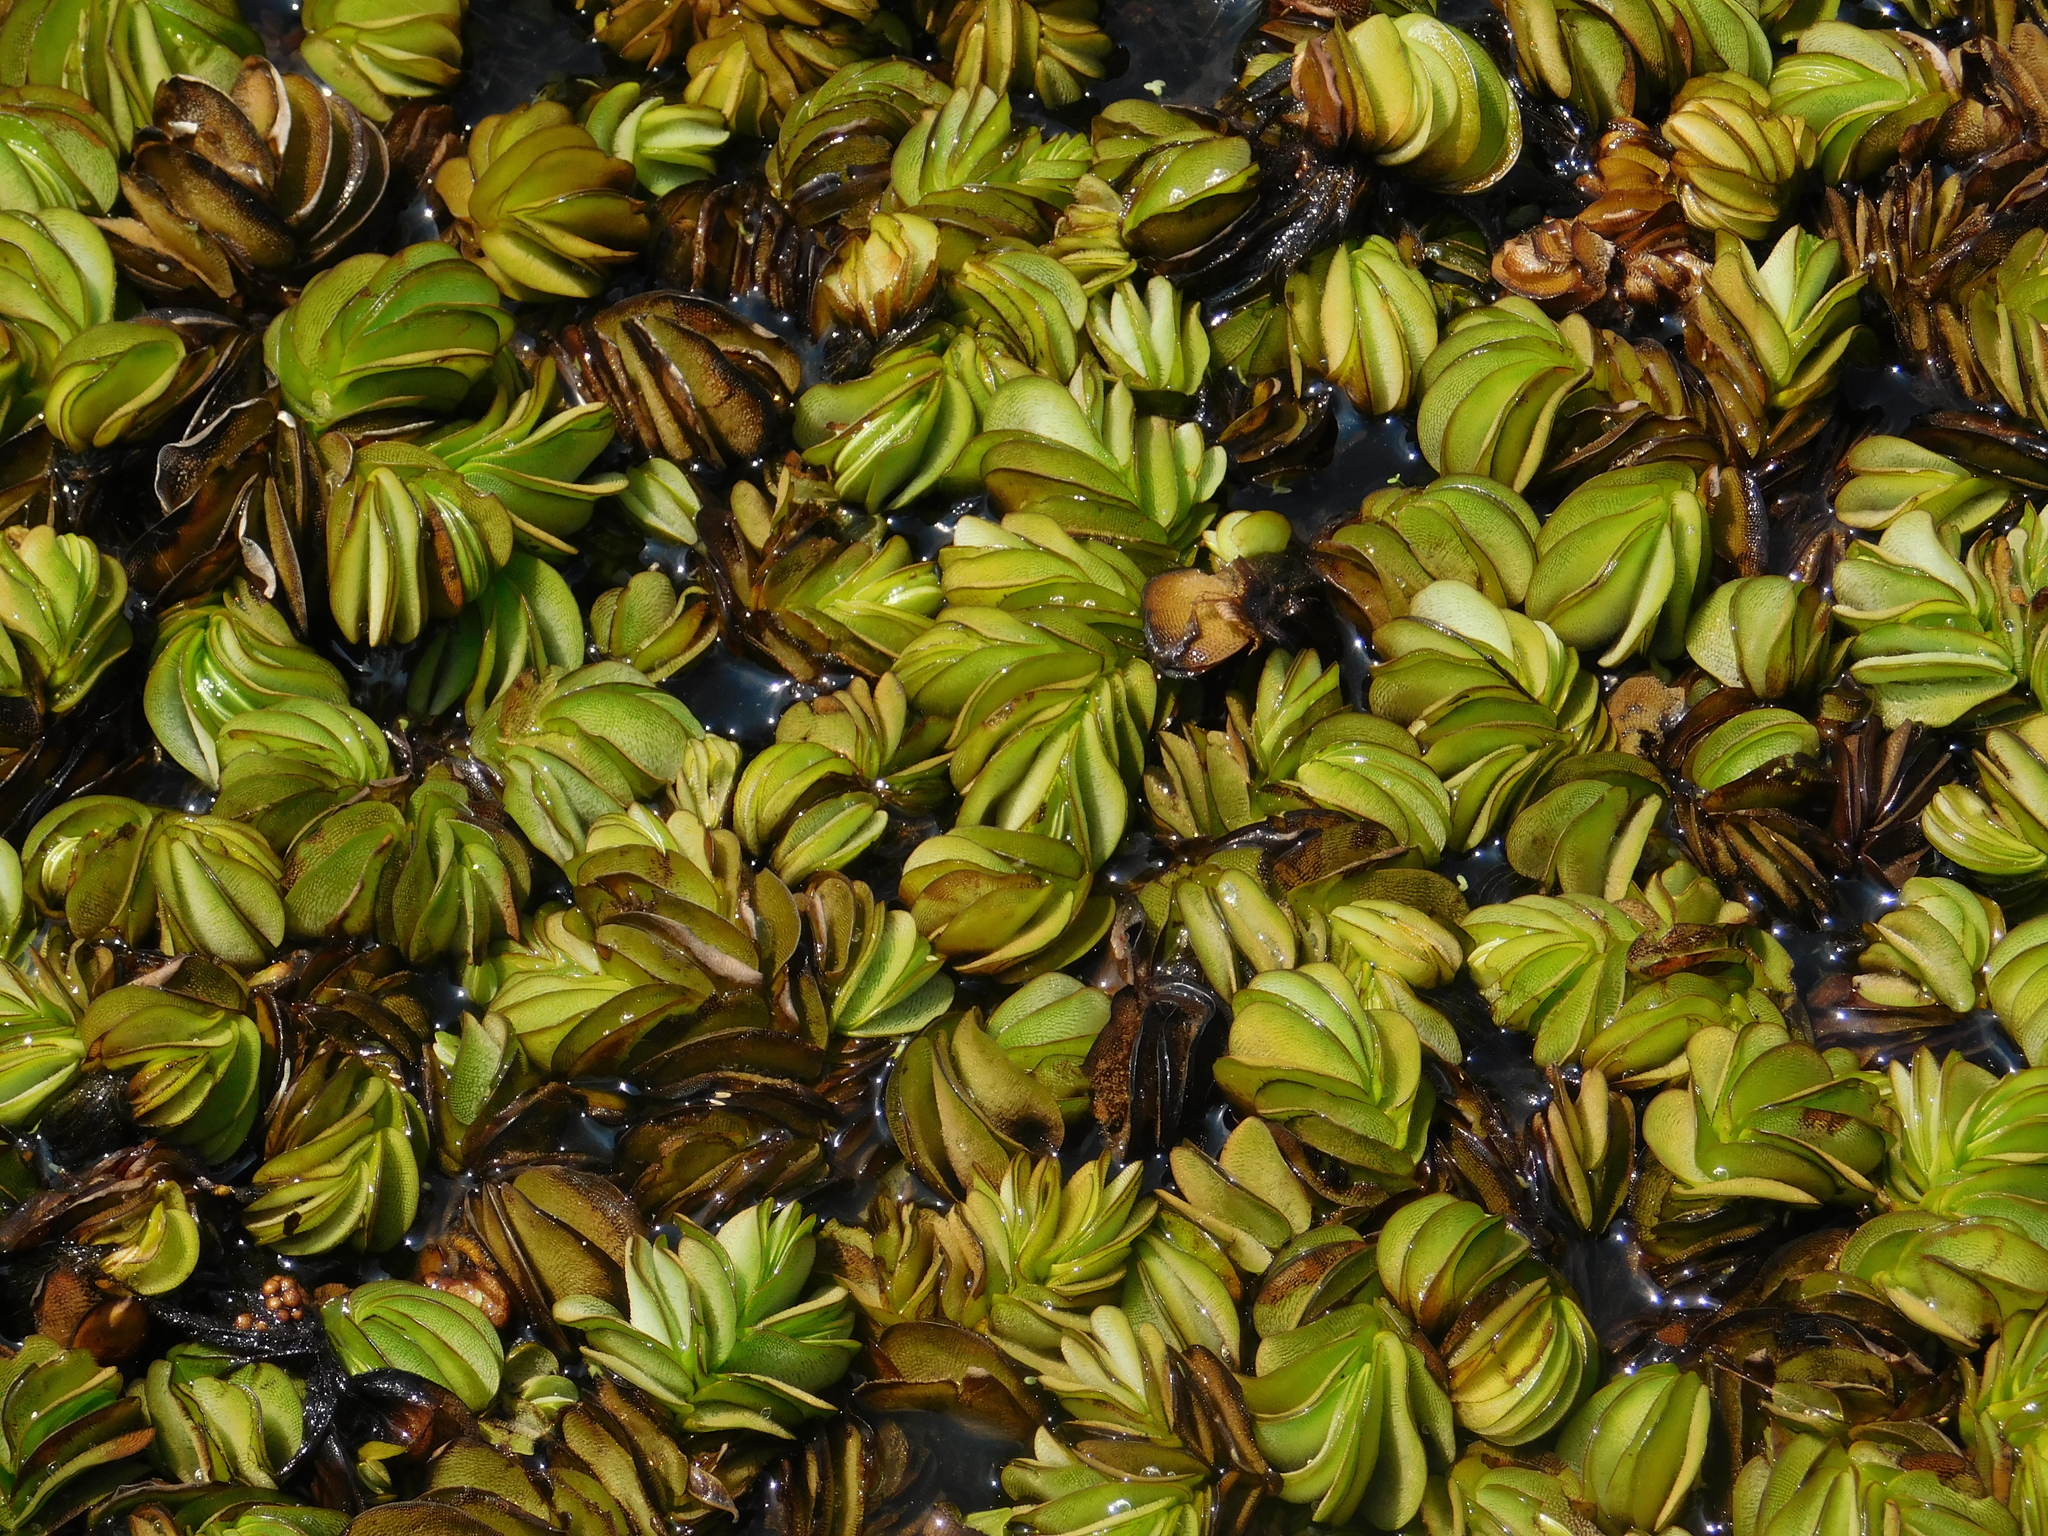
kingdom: Plantae
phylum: Tracheophyta
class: Polypodiopsida
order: Salviniales
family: Salviniaceae
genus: Salvinia
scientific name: Salvinia molesta
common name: Kariba weed
